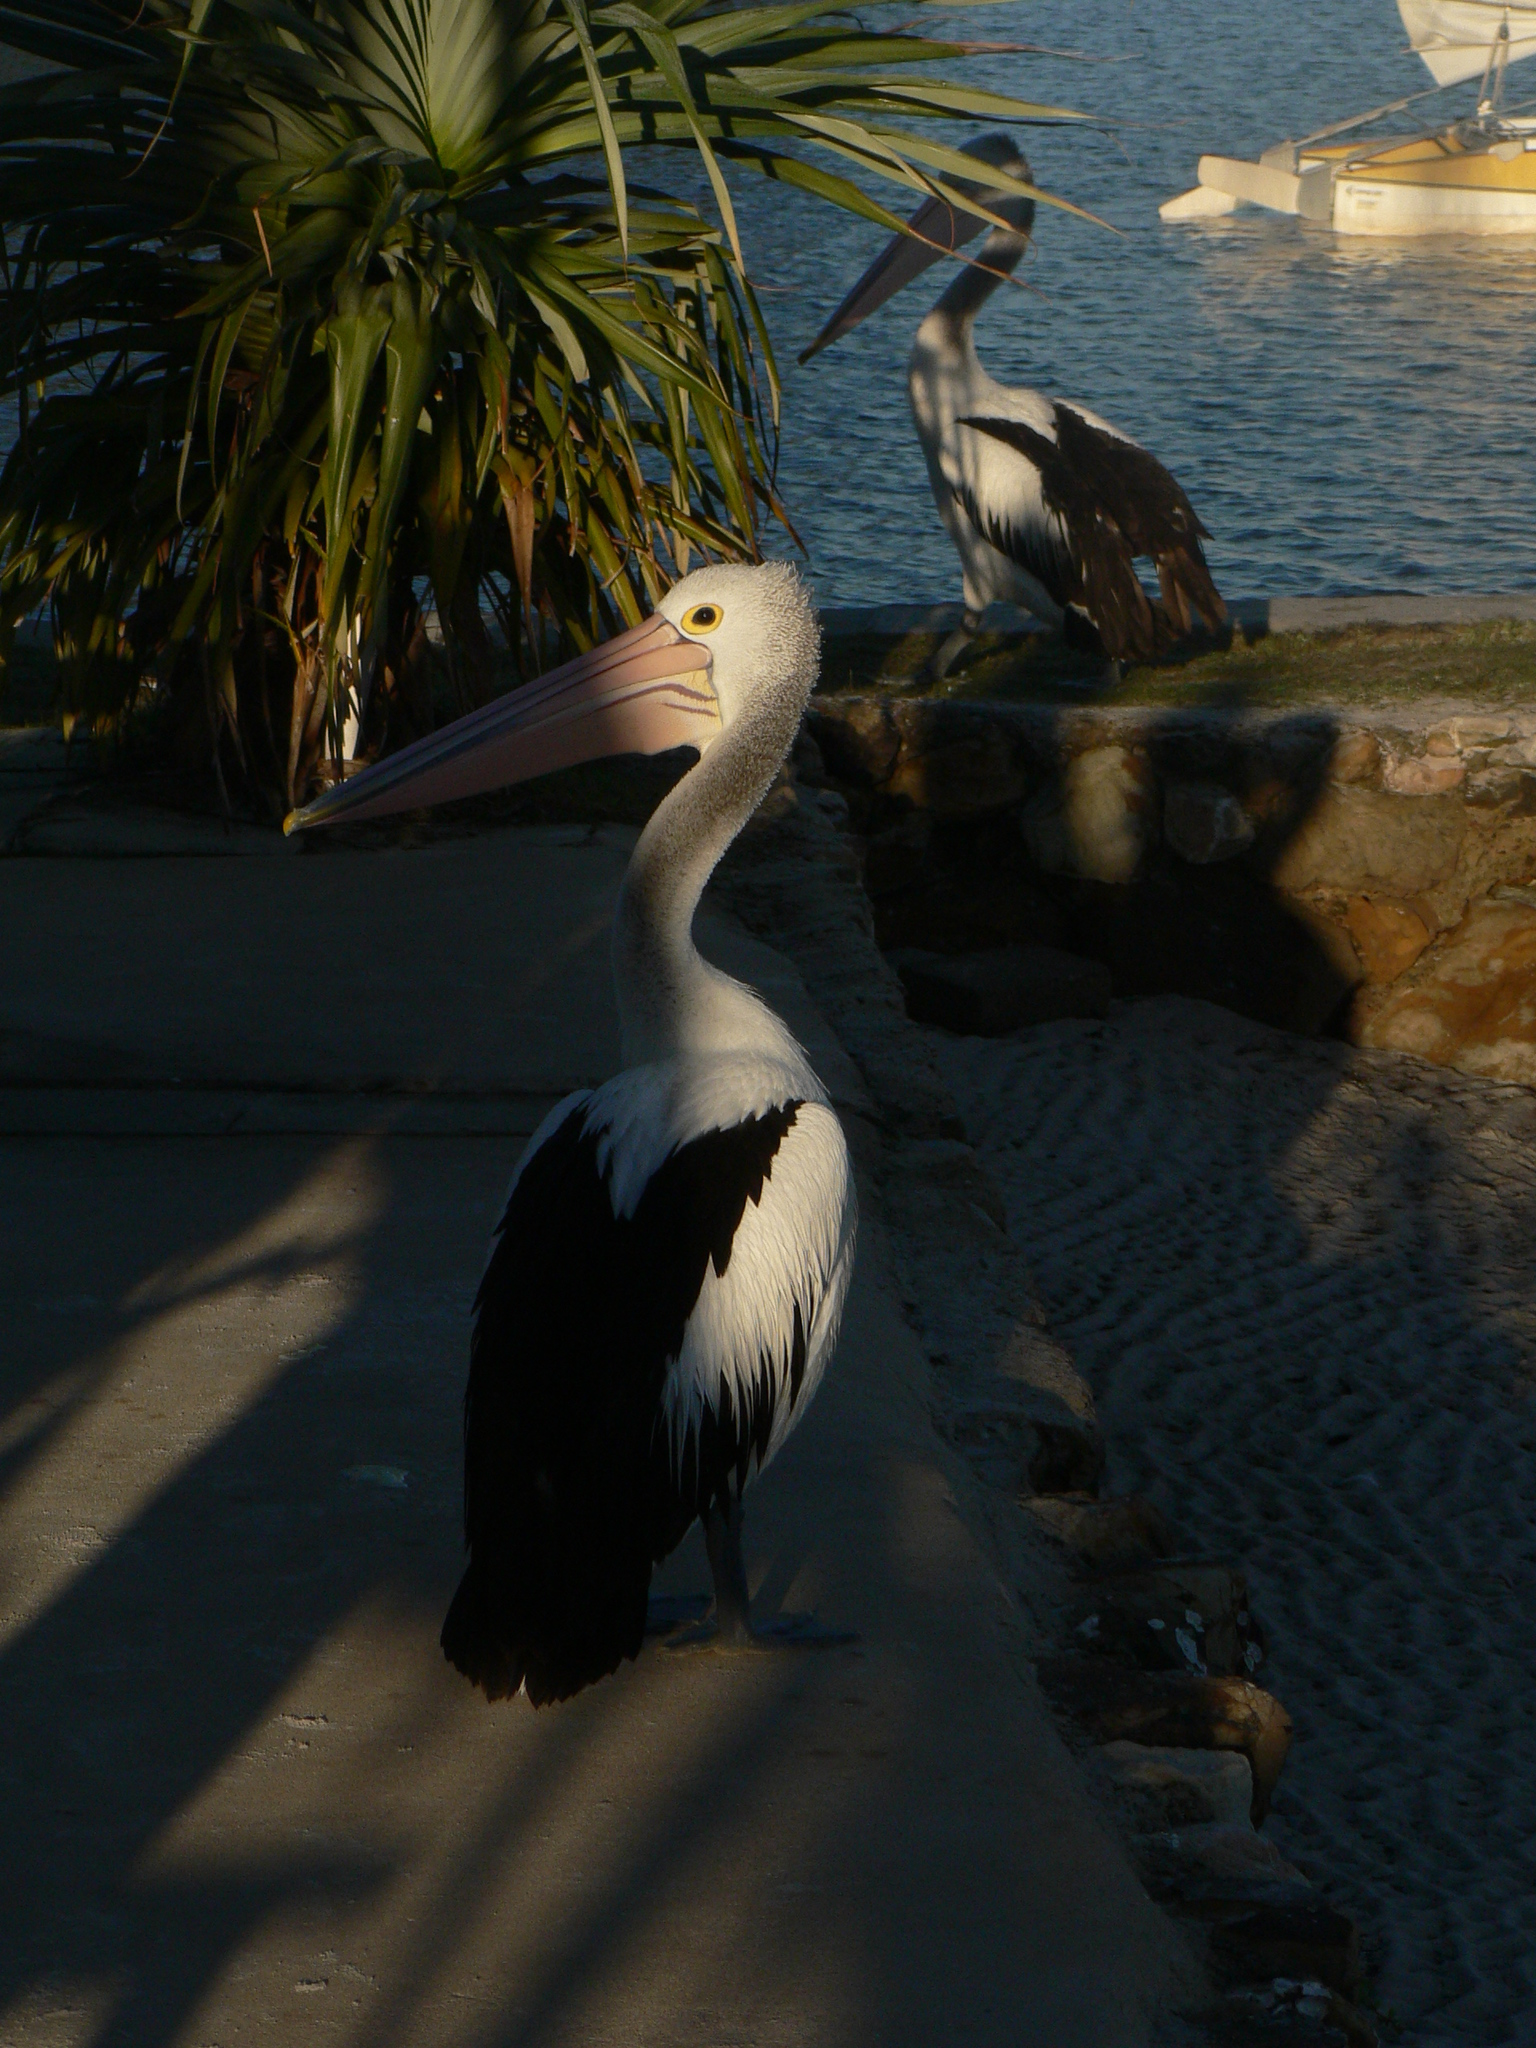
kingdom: Animalia
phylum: Chordata
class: Aves
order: Pelecaniformes
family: Pelecanidae
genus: Pelecanus
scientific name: Pelecanus conspicillatus
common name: Australian pelican
